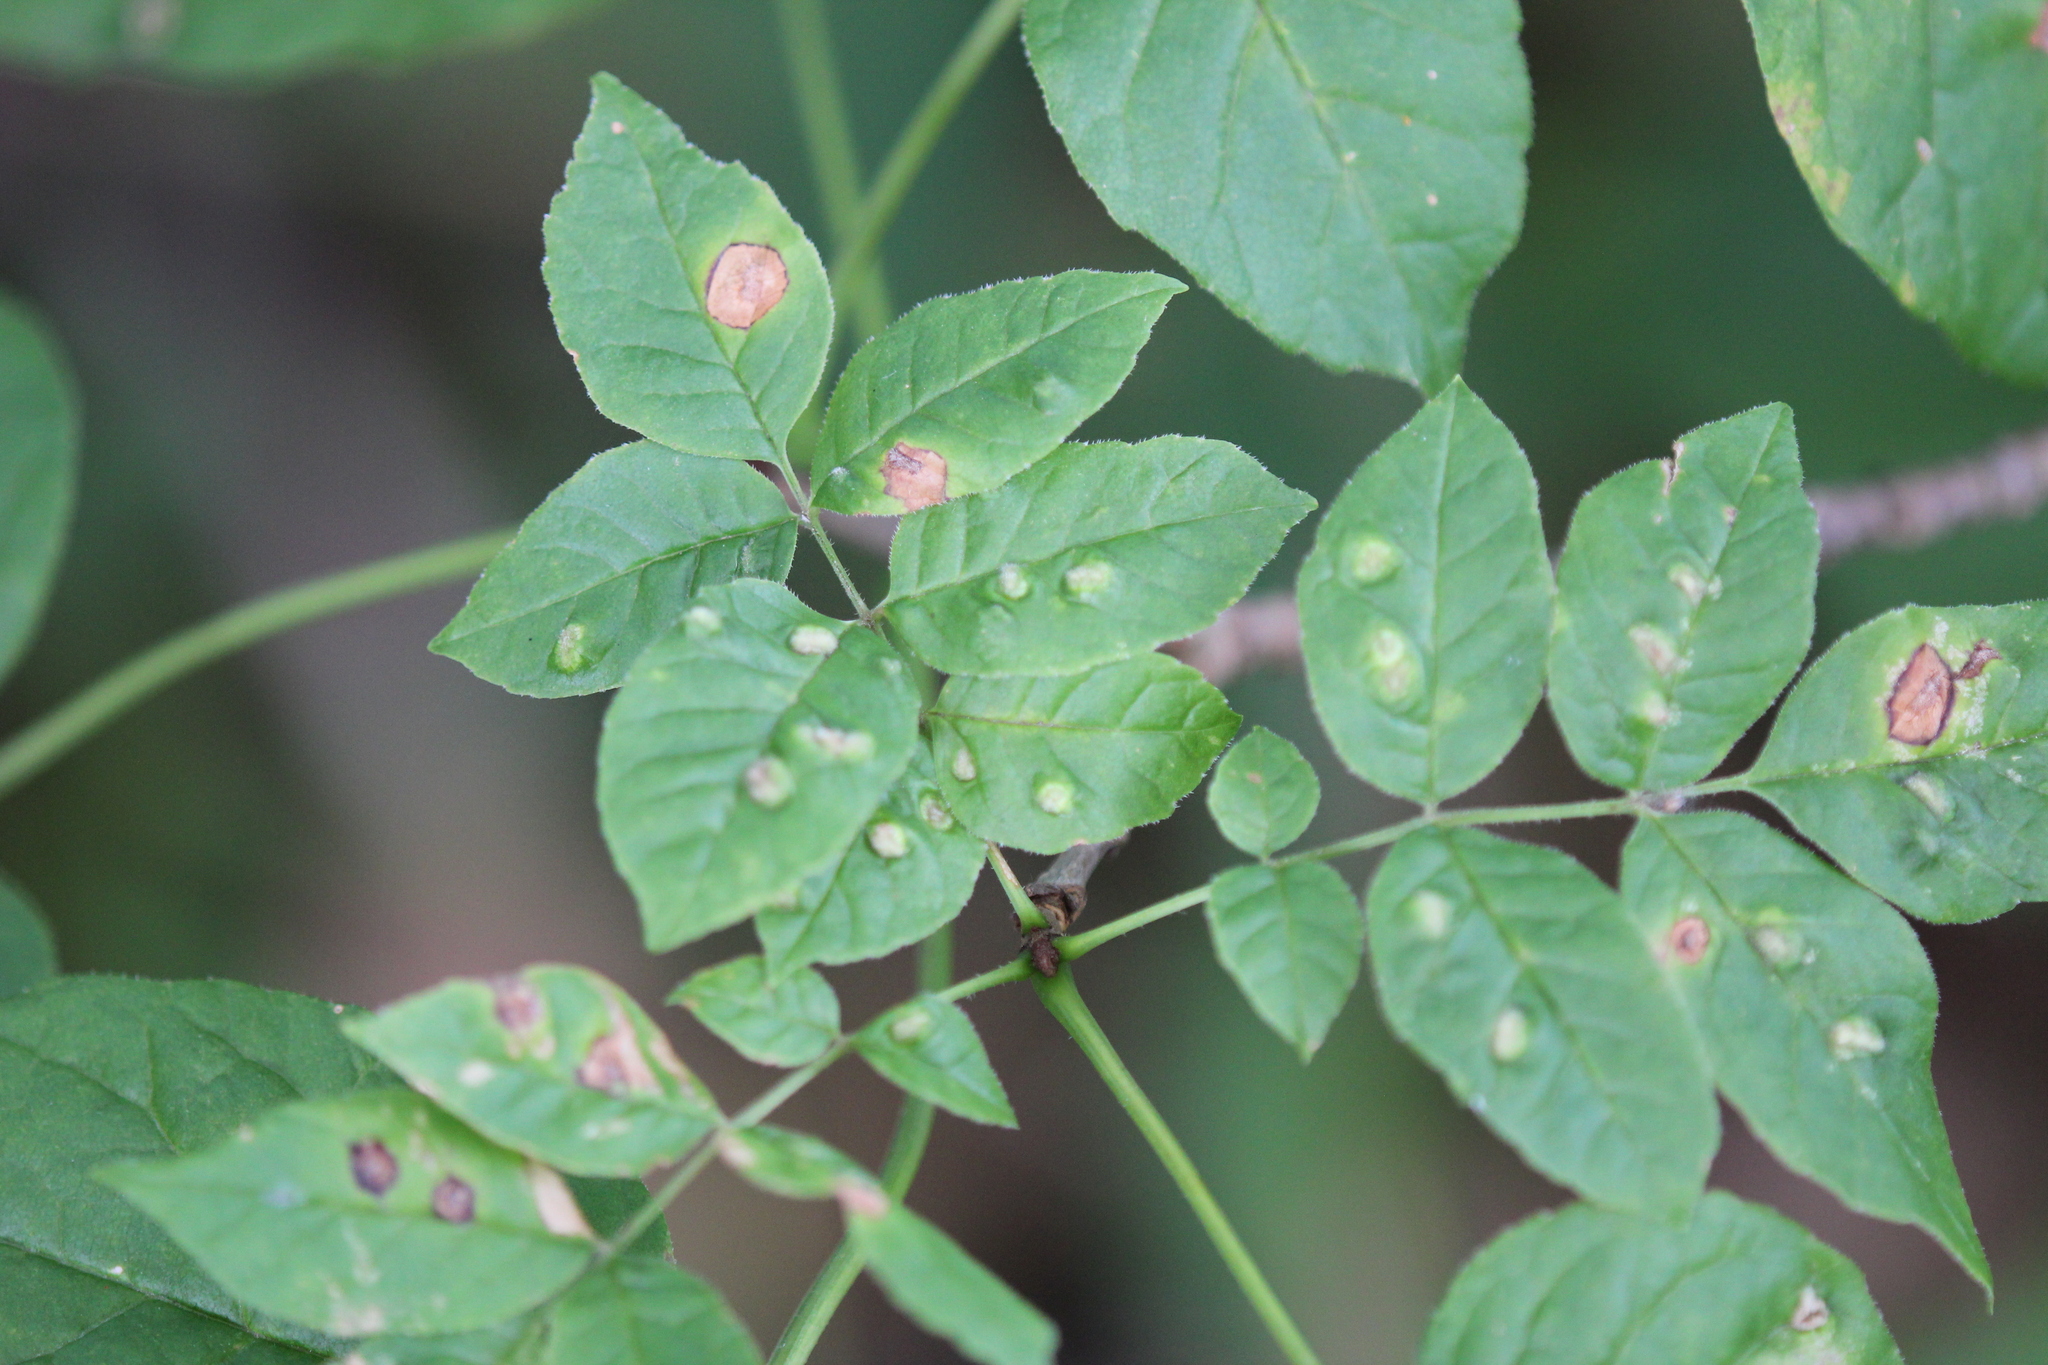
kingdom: Animalia
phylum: Arthropoda
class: Arachnida
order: Trombidiformes
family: Eriophyidae
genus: Aceria
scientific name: Aceria fraxinicola
